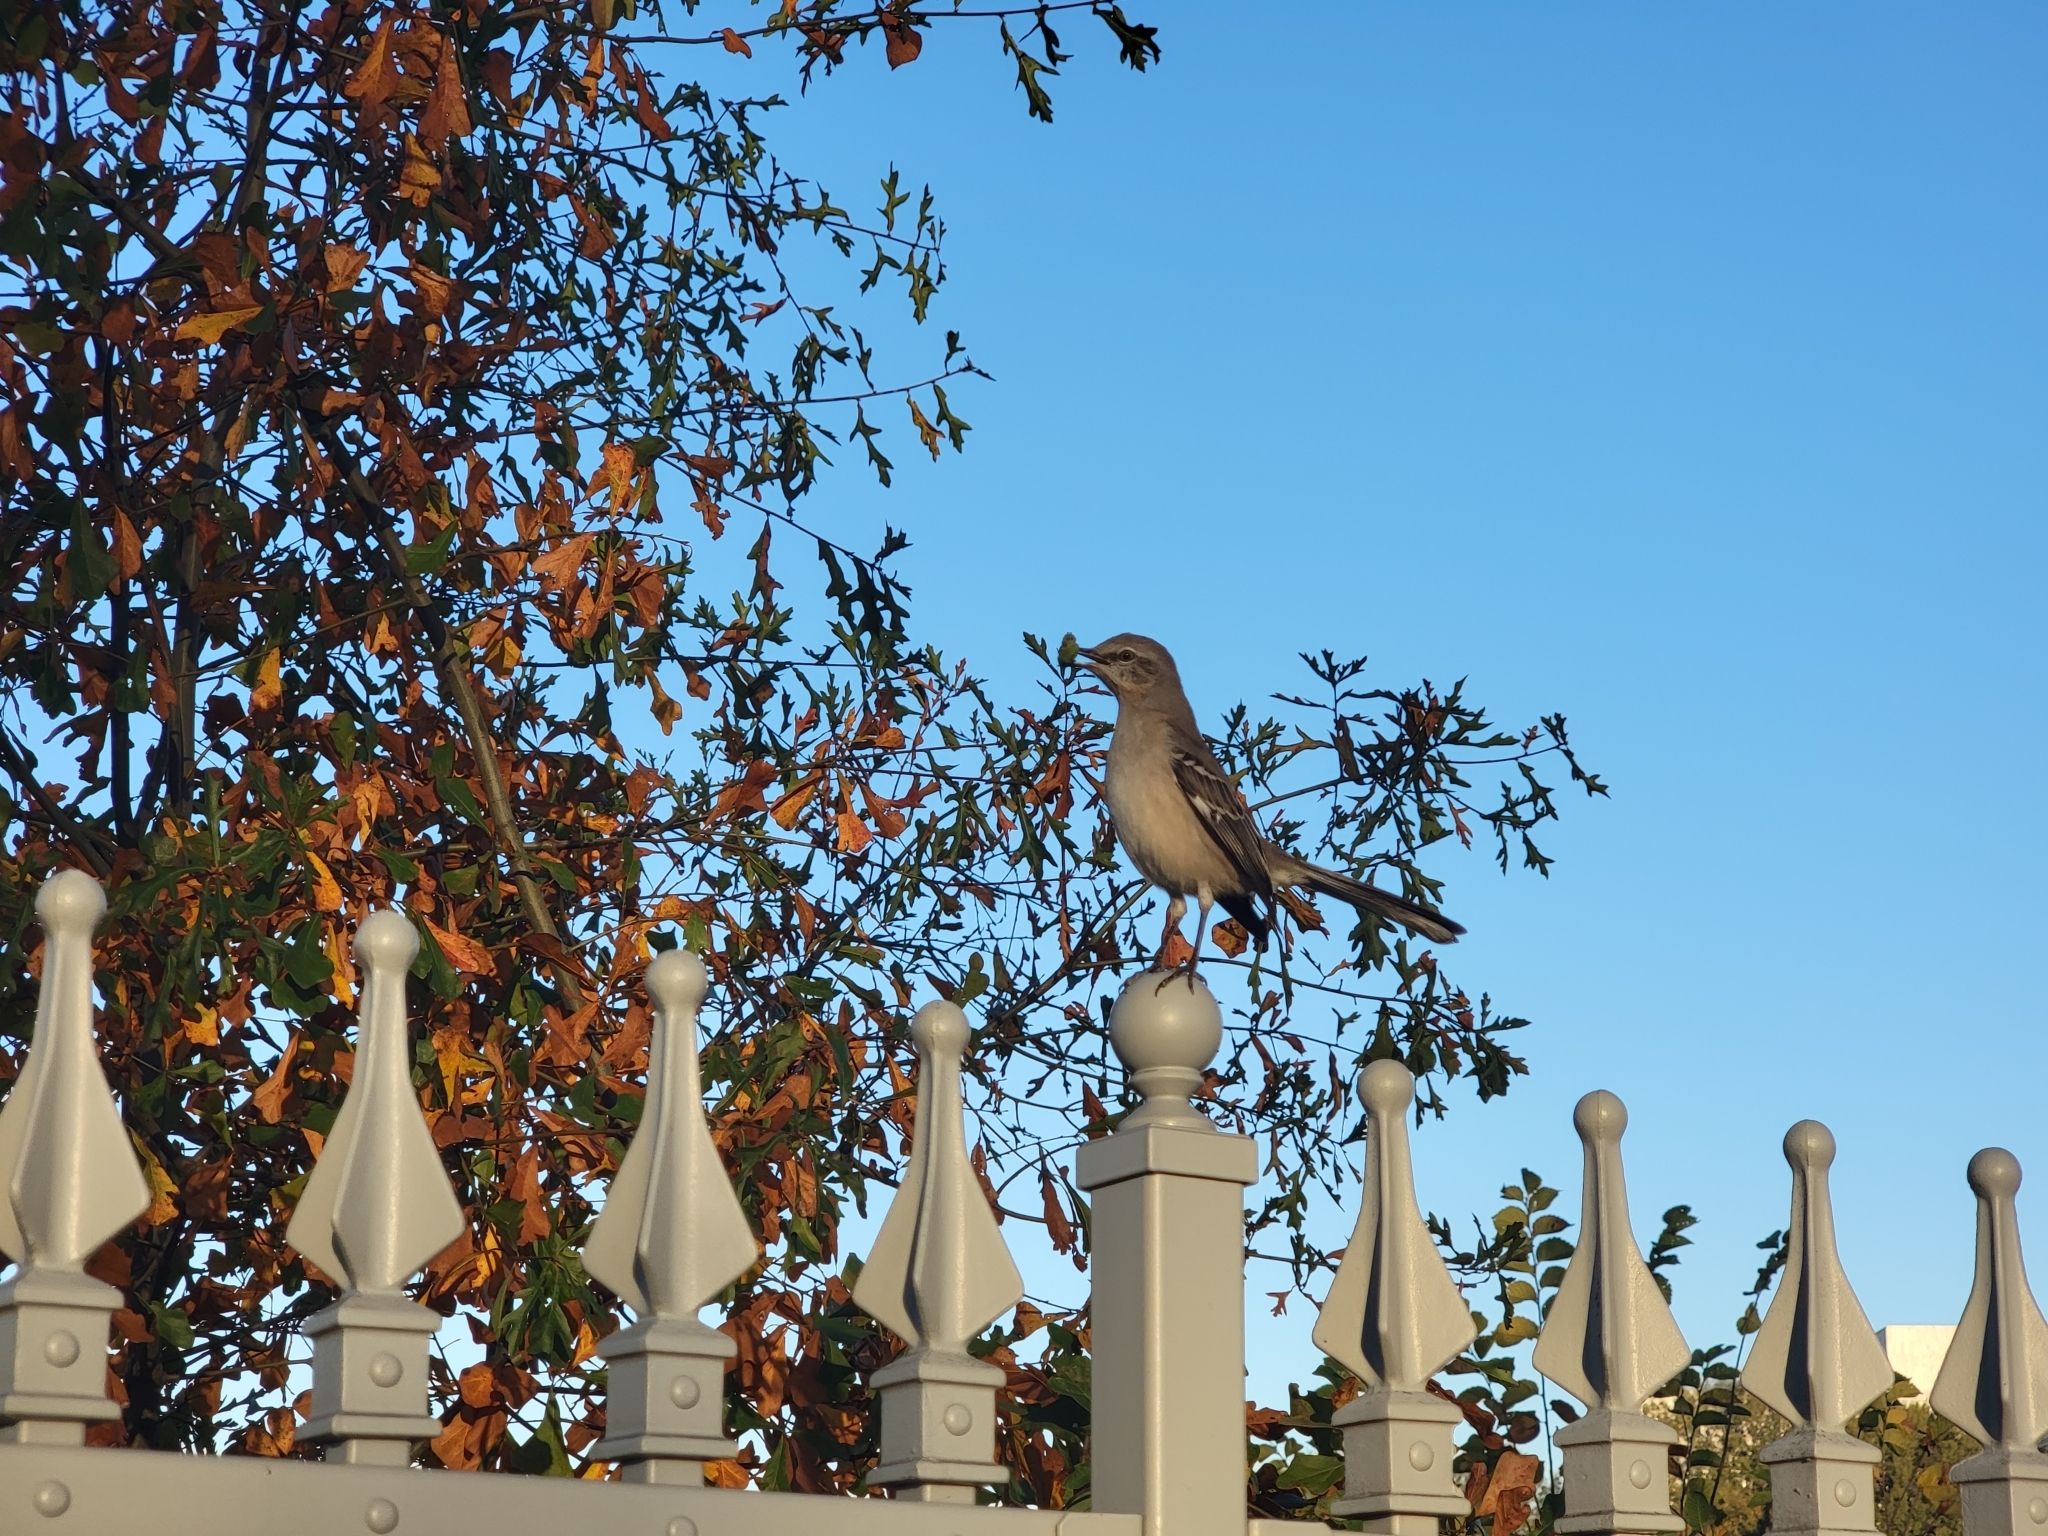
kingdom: Animalia
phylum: Chordata
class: Aves
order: Passeriformes
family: Mimidae
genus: Mimus
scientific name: Mimus polyglottos
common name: Northern mockingbird
